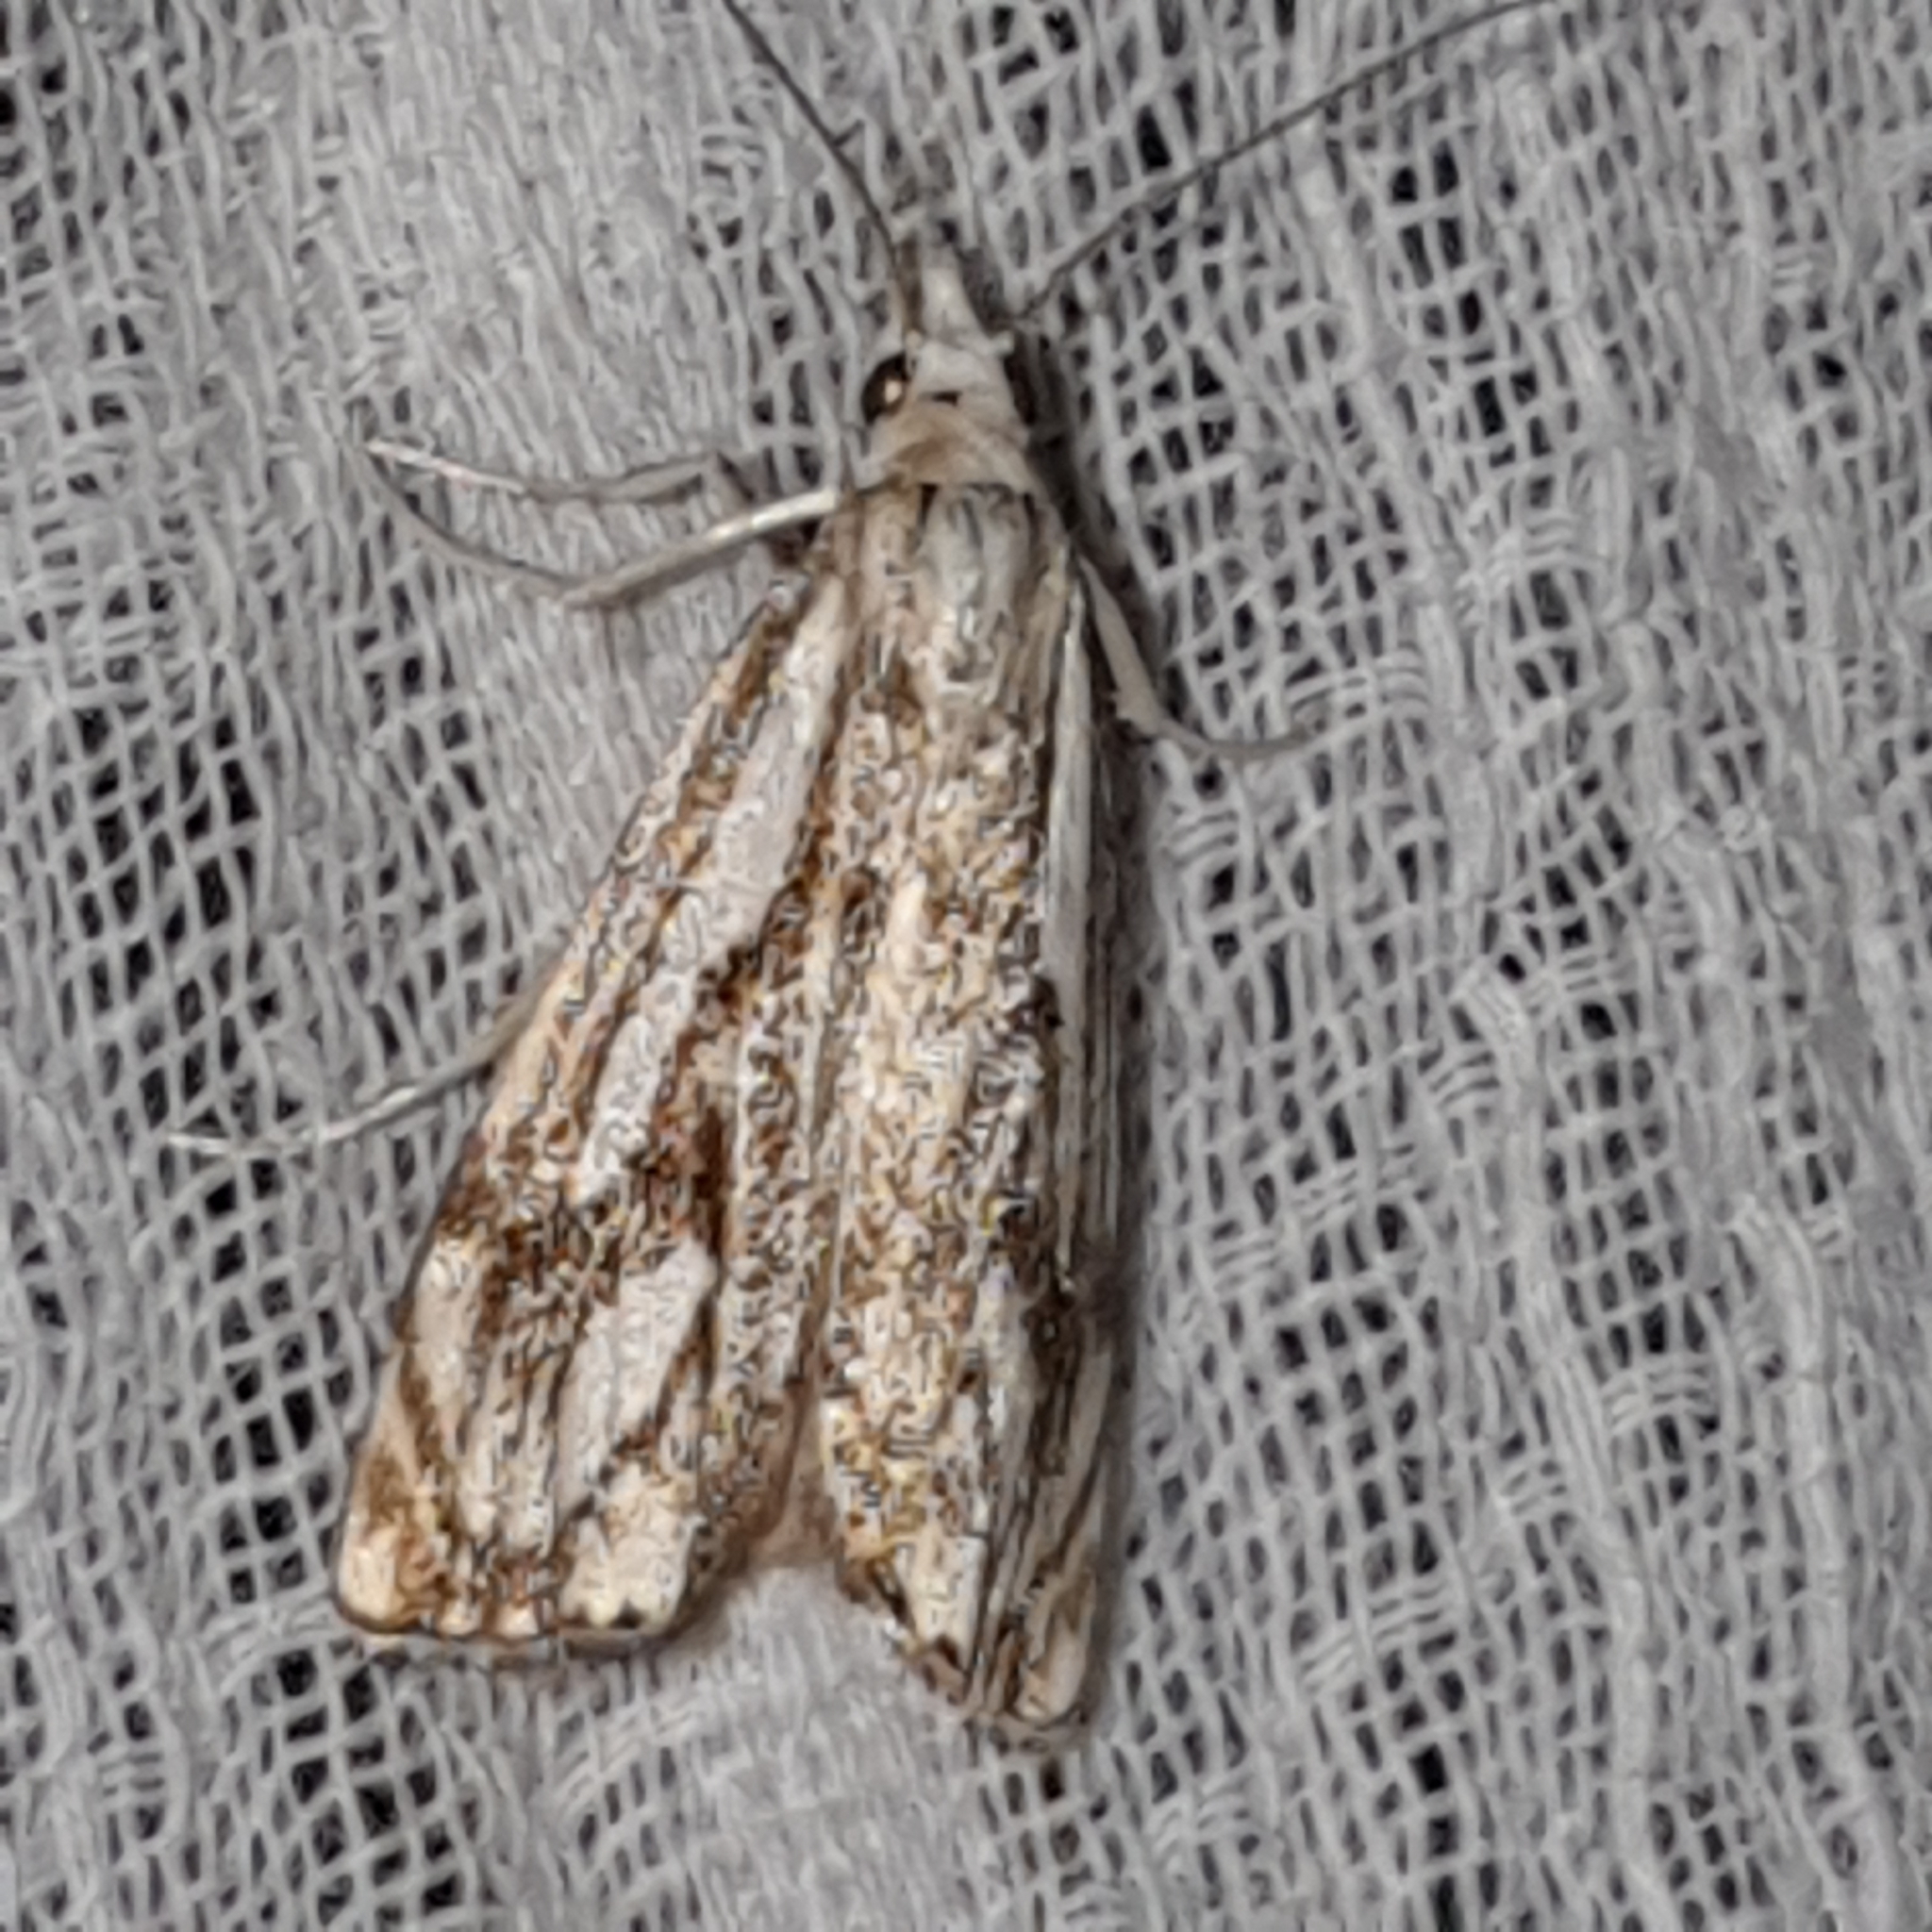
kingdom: Animalia
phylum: Arthropoda
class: Insecta
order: Lepidoptera
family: Crambidae
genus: Catoptria
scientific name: Catoptria falsella
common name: Chequered grass-veneer
